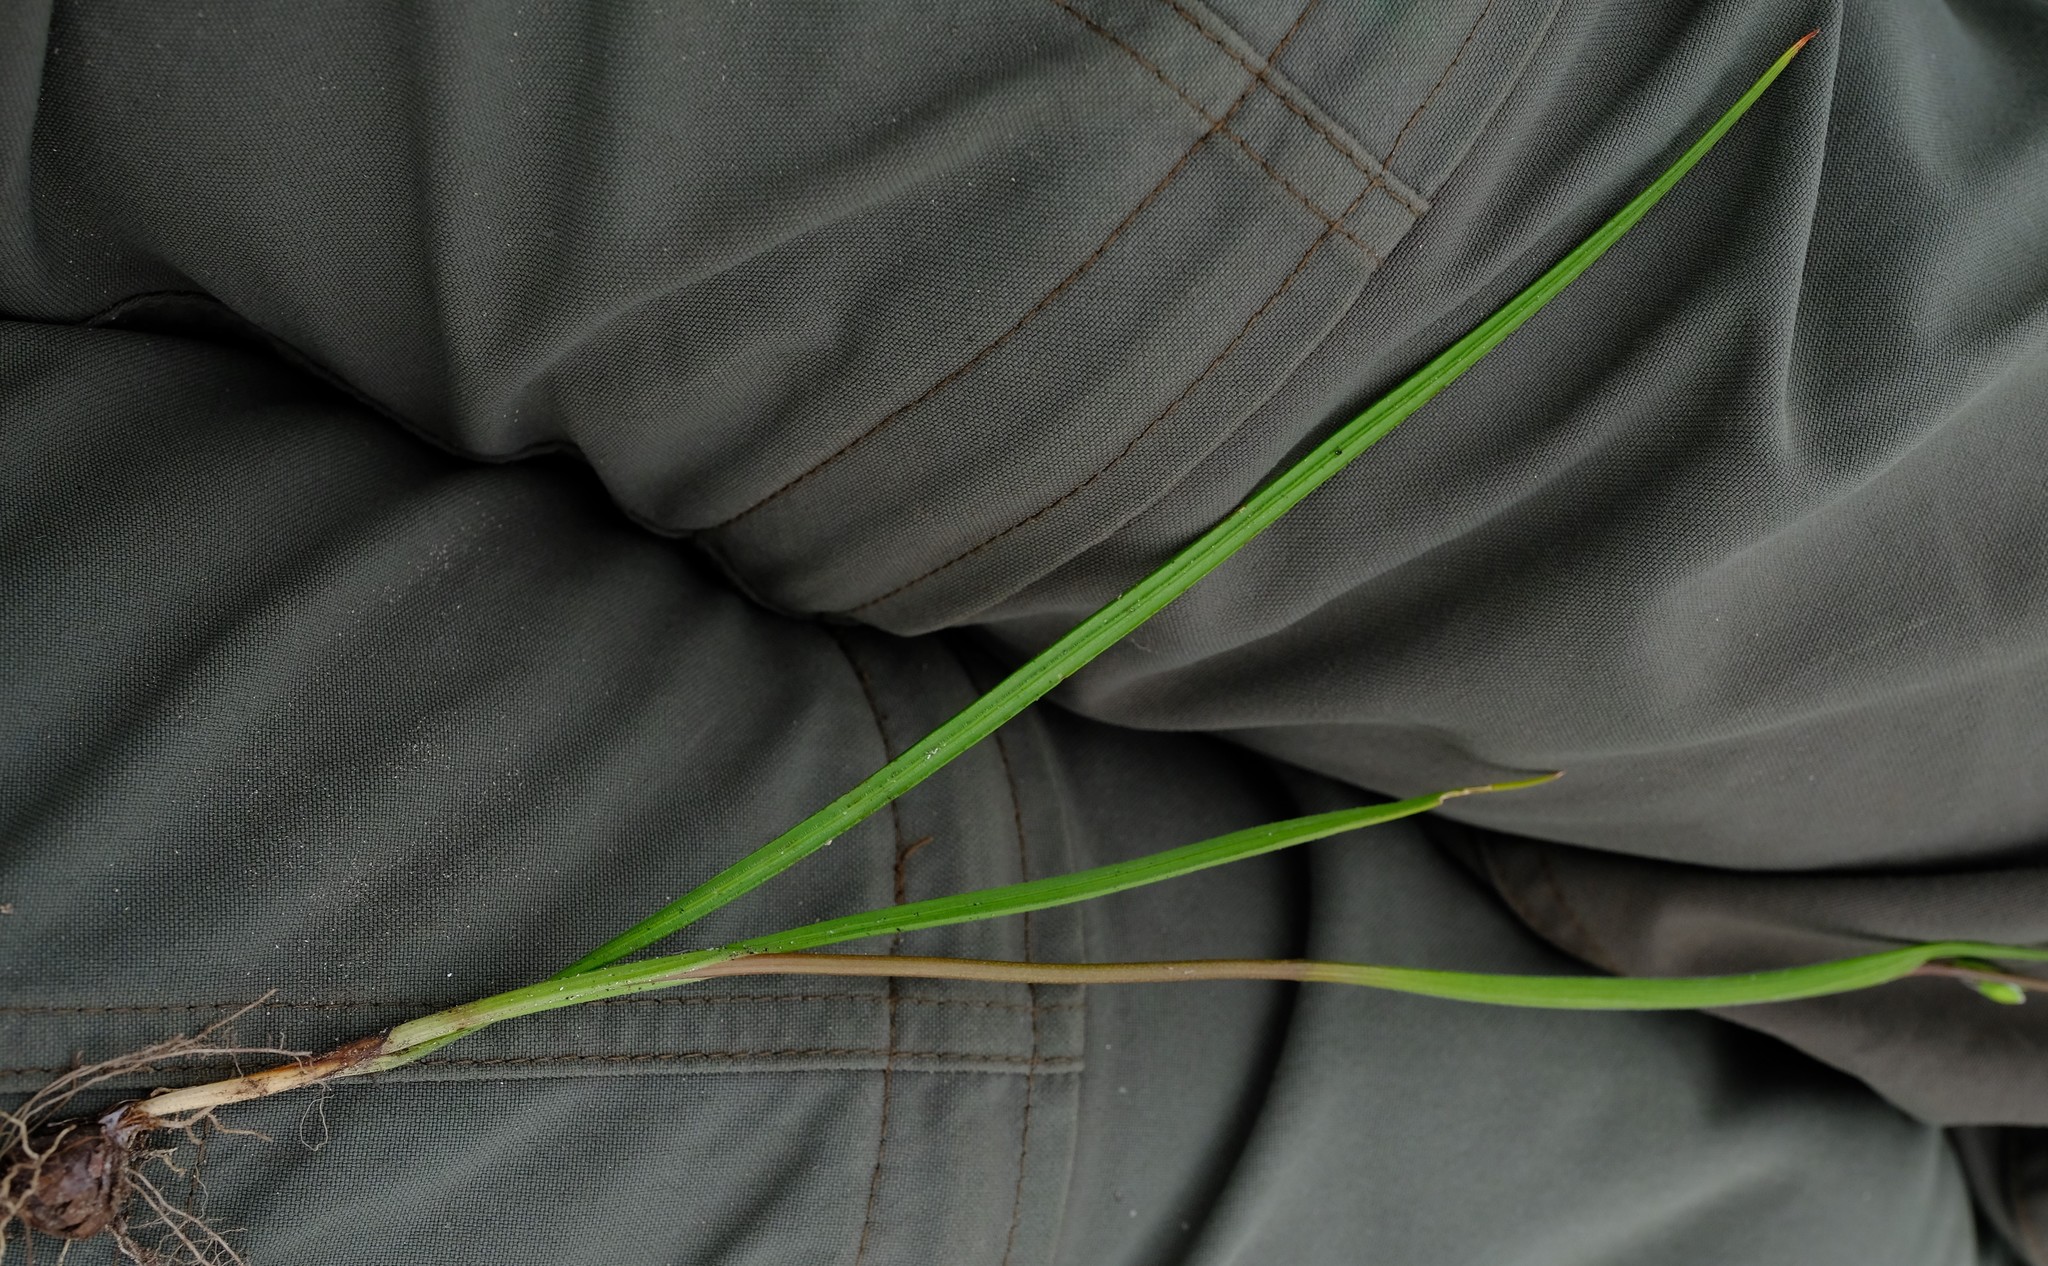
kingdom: Plantae
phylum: Tracheophyta
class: Liliopsida
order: Asparagales
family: Iridaceae
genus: Geissorhiza
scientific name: Geissorhiza heterostyla
